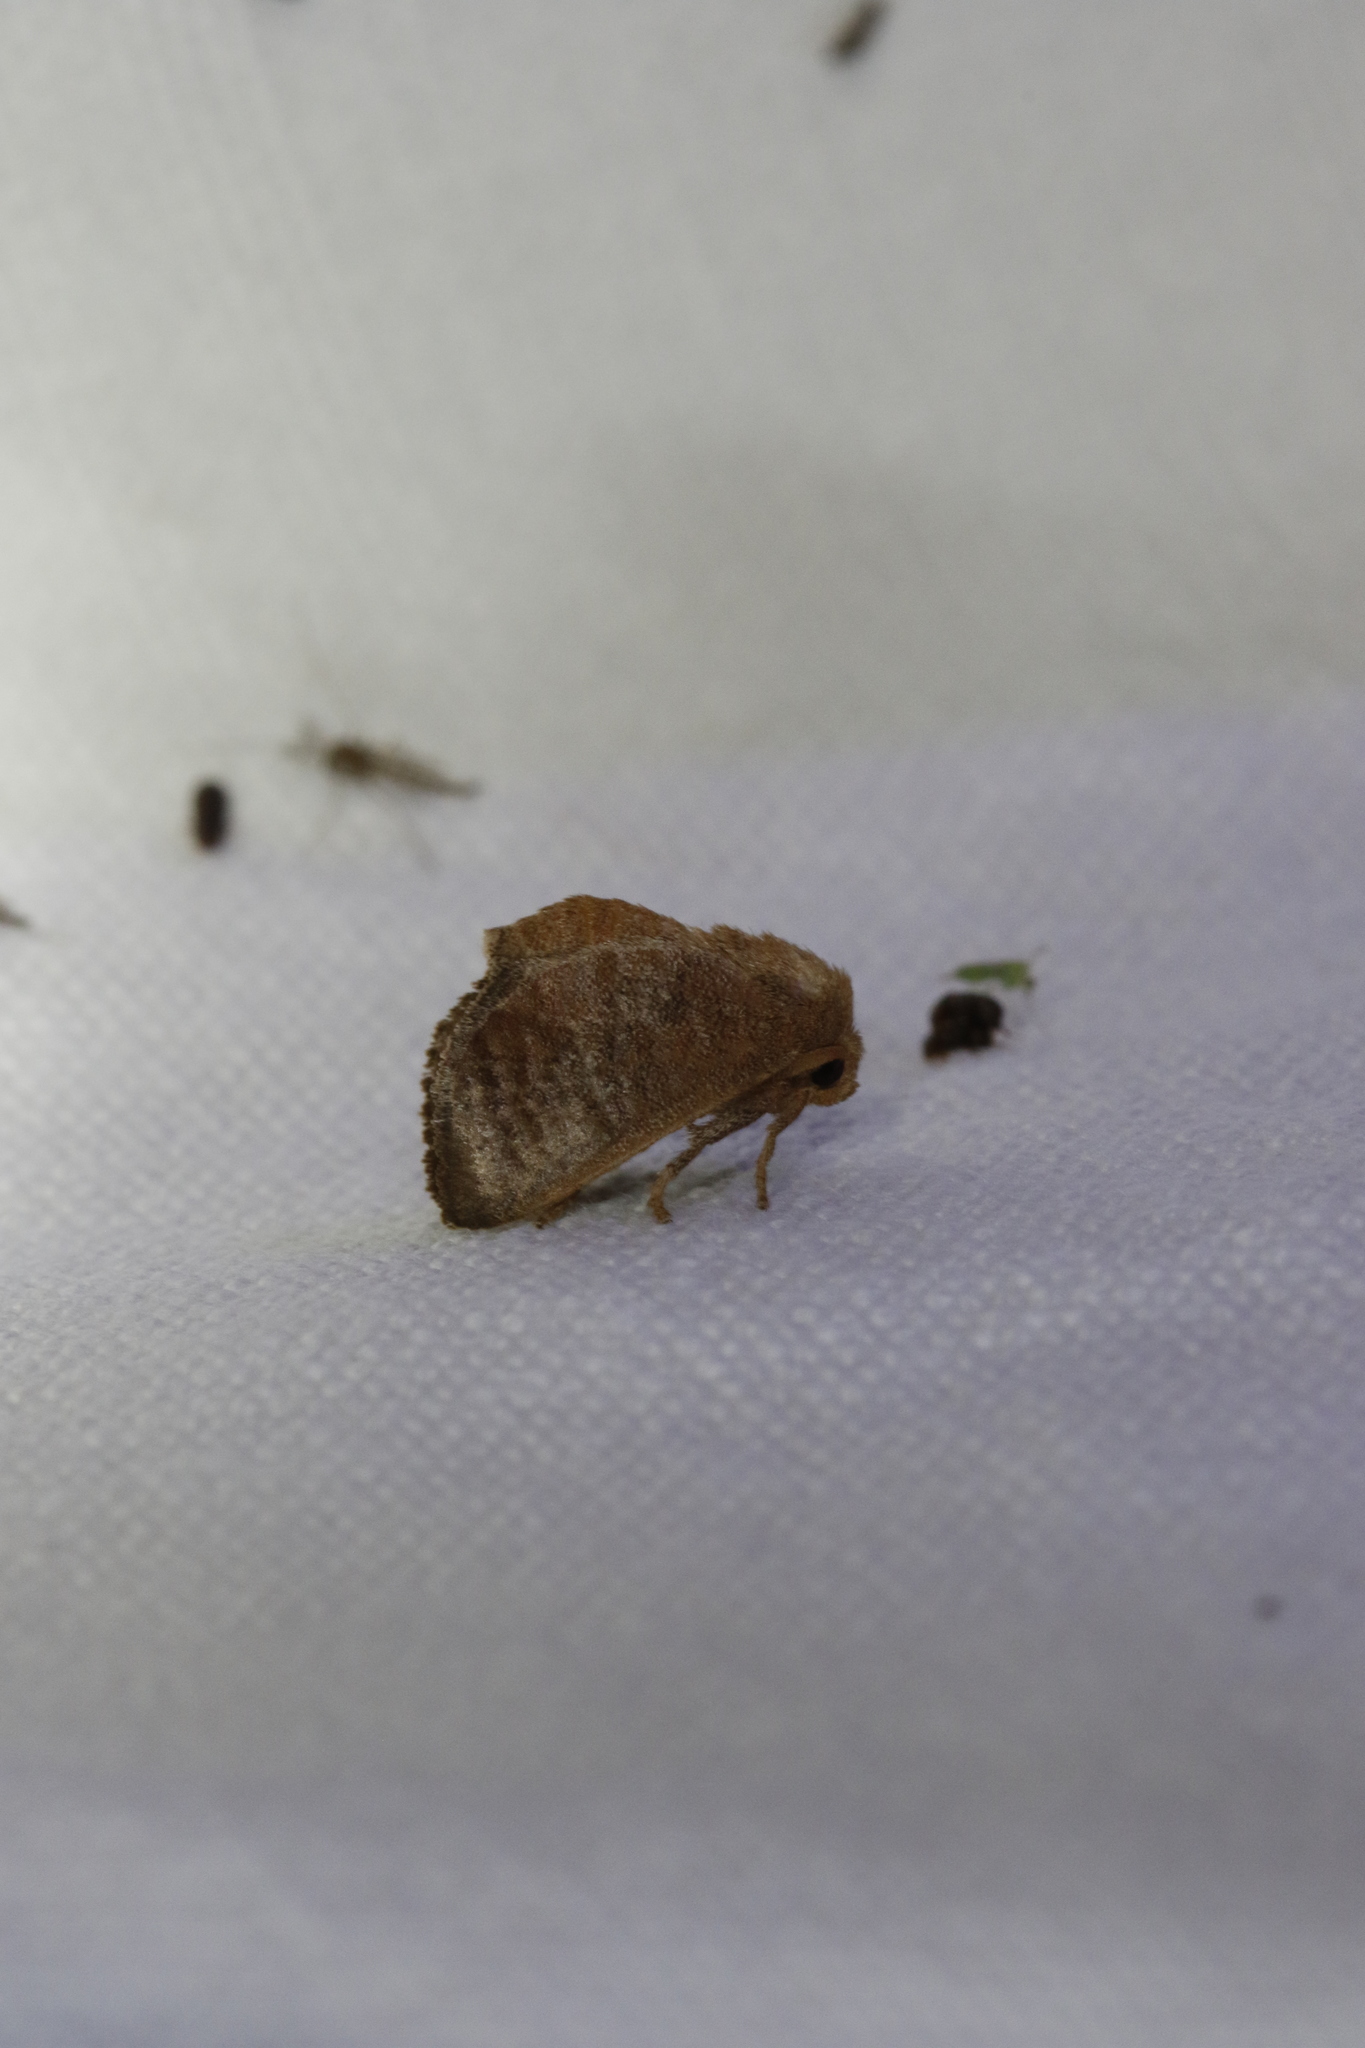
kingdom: Animalia
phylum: Arthropoda
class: Insecta
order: Lepidoptera
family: Limacodidae
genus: Isa
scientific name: Isa textula
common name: Crowned slug moth
